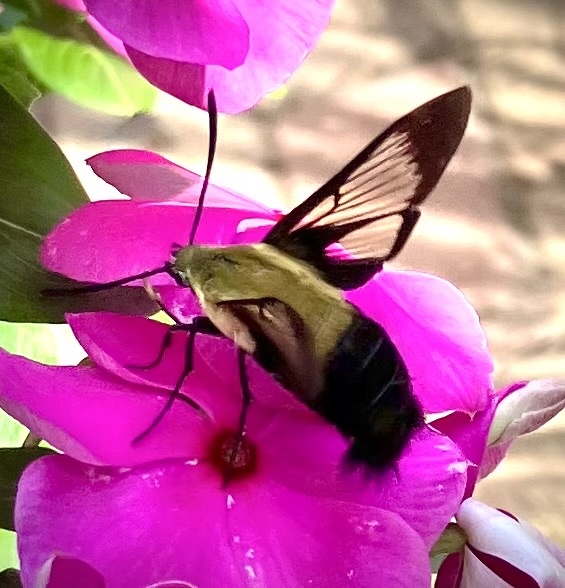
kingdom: Animalia
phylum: Arthropoda
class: Insecta
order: Lepidoptera
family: Sphingidae
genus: Hemaris
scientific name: Hemaris diffinis
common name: Bumblebee moth
